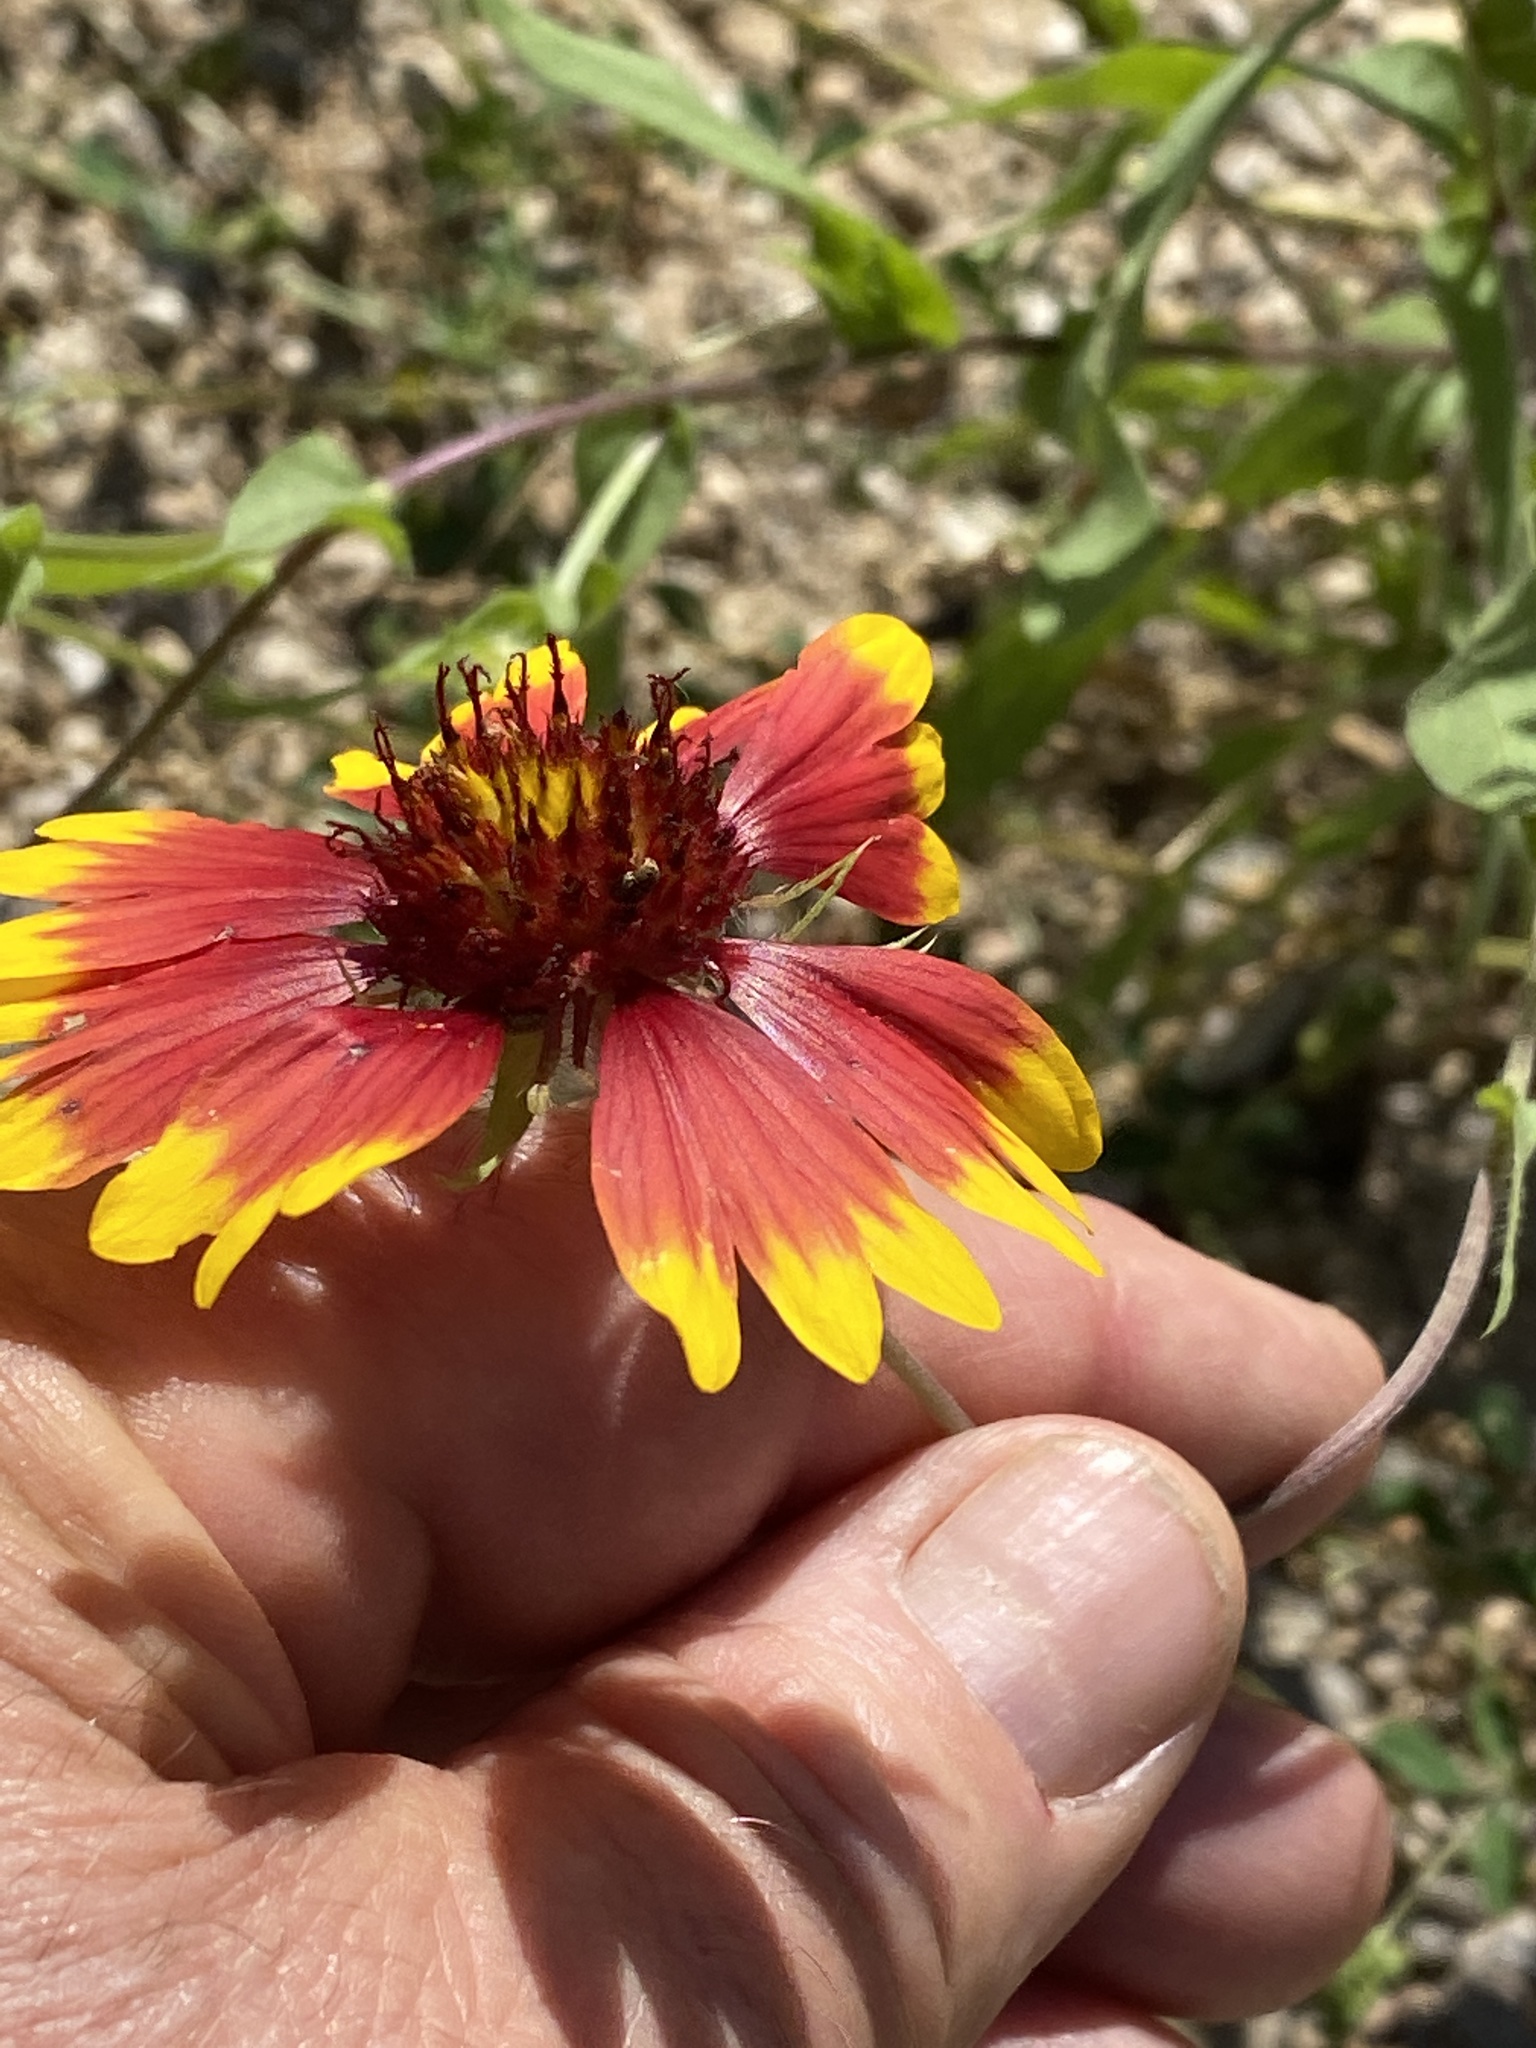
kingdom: Plantae
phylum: Tracheophyta
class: Magnoliopsida
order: Asterales
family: Asteraceae
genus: Gaillardia
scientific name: Gaillardia pulchella
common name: Firewheel
